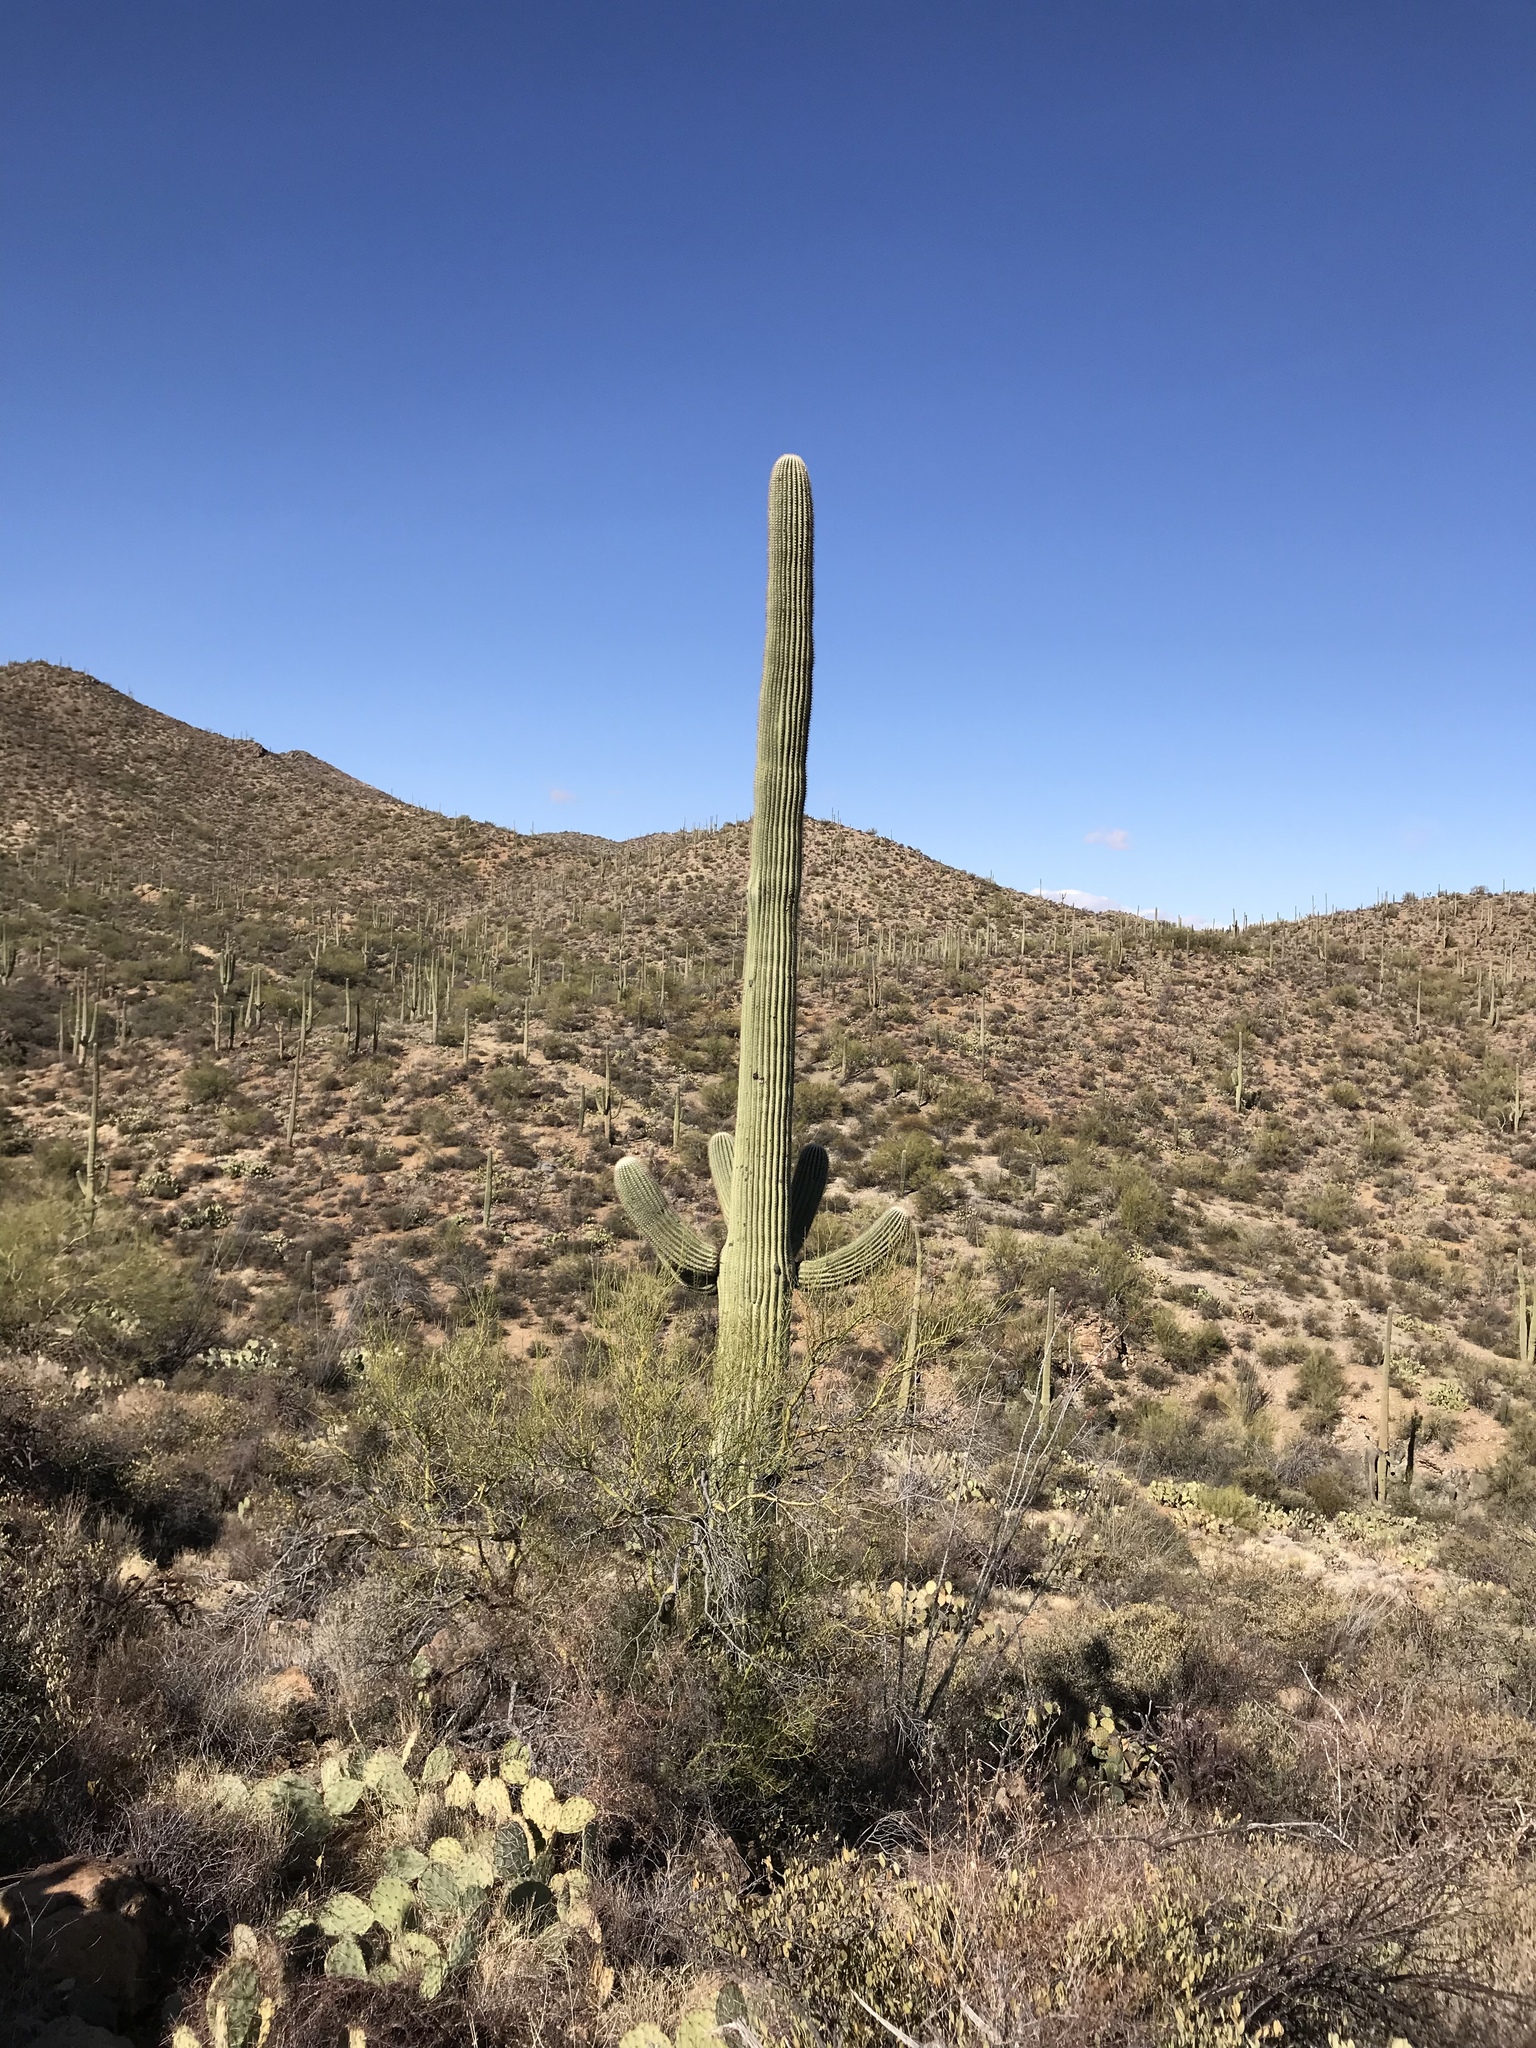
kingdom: Plantae
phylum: Tracheophyta
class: Magnoliopsida
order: Caryophyllales
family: Cactaceae
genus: Carnegiea
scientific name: Carnegiea gigantea
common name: Saguaro
